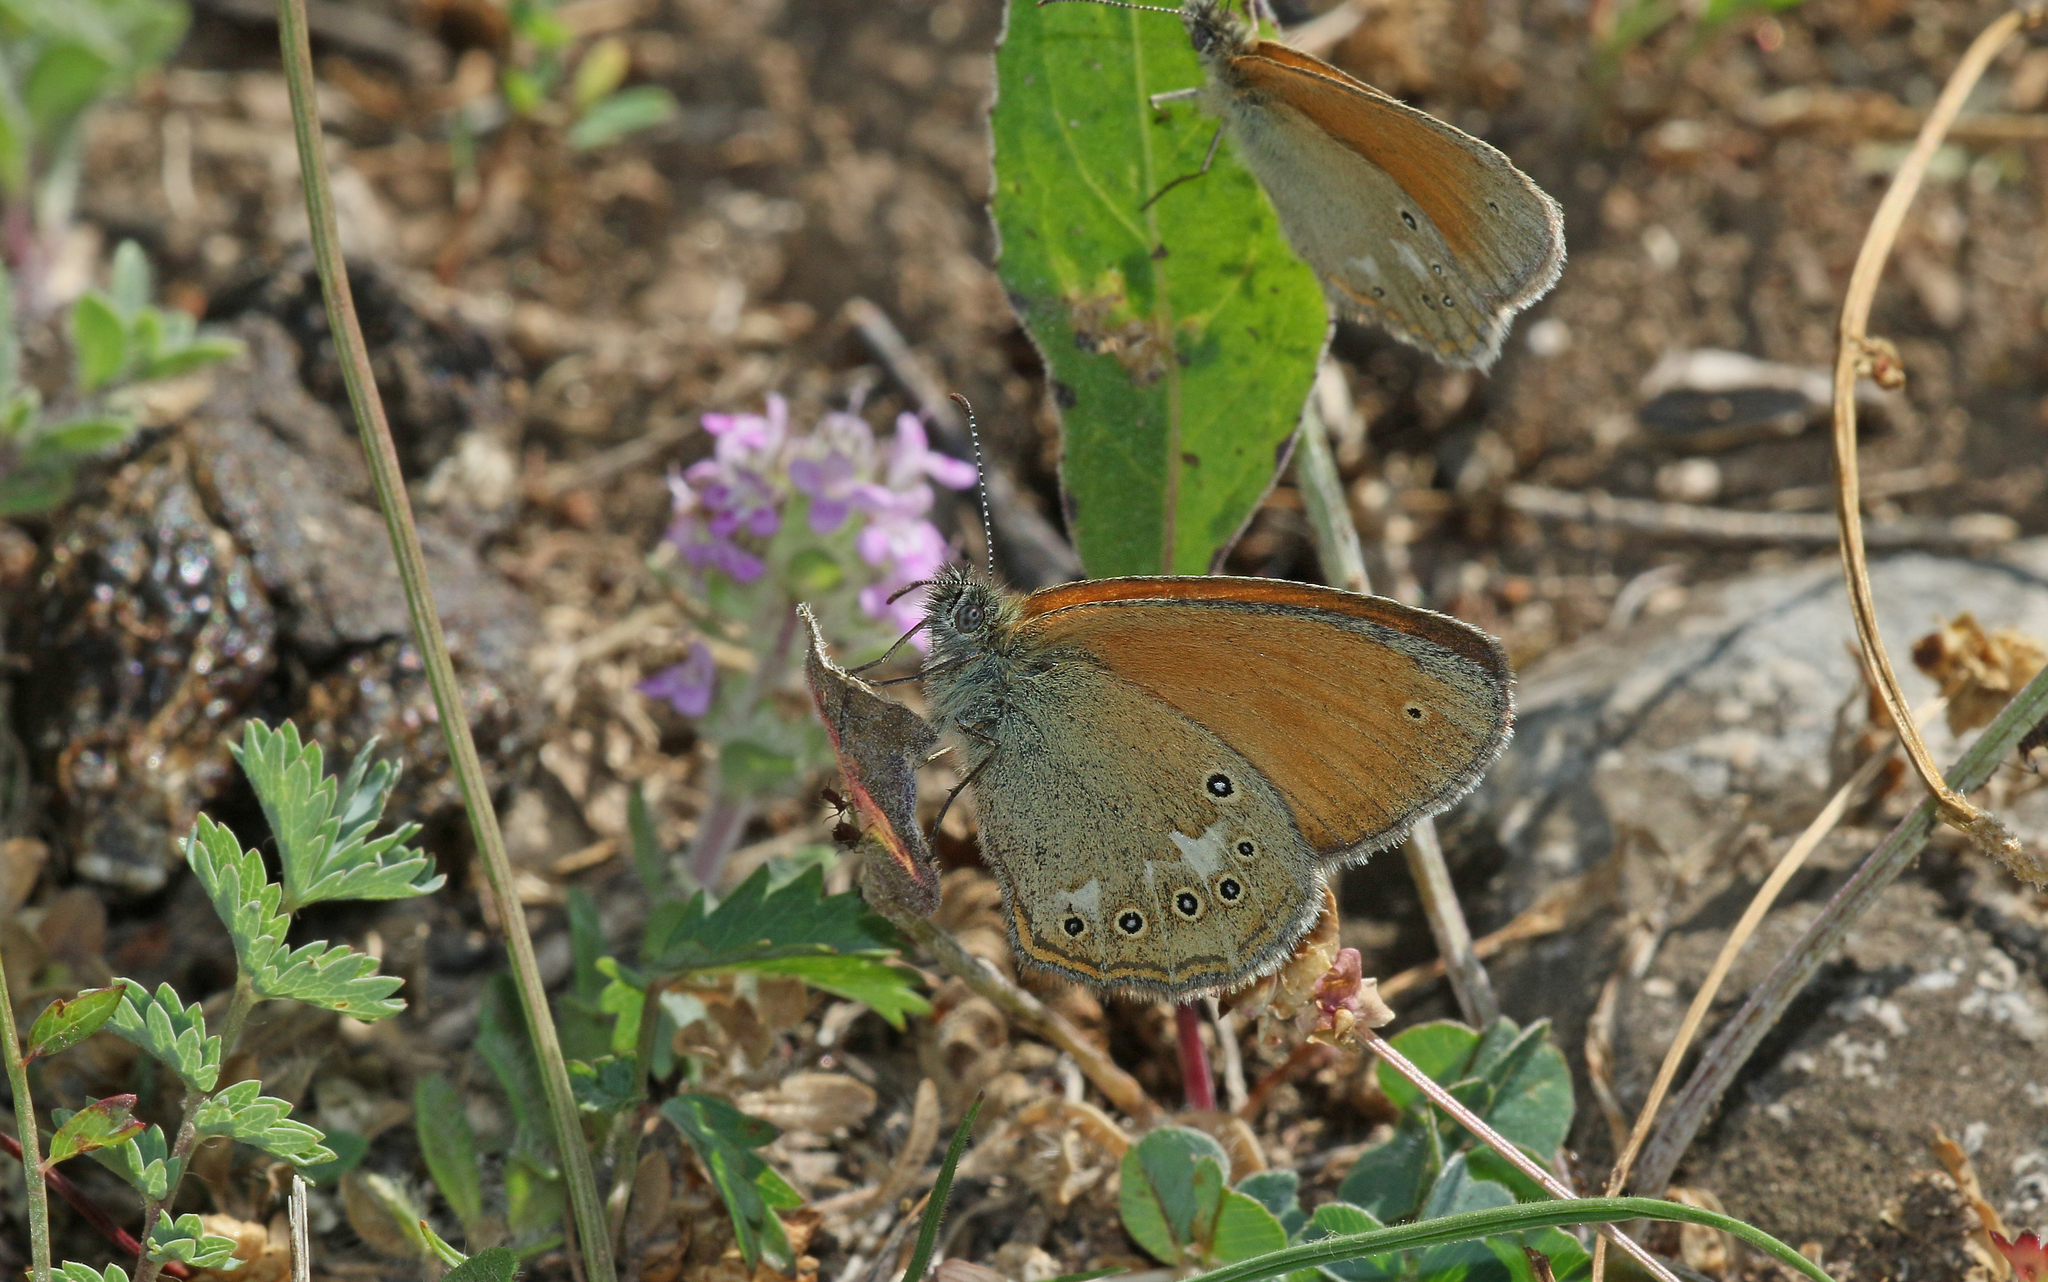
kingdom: Animalia
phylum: Arthropoda
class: Insecta
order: Lepidoptera
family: Nymphalidae
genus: Coenonympha
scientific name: Coenonympha iphis
